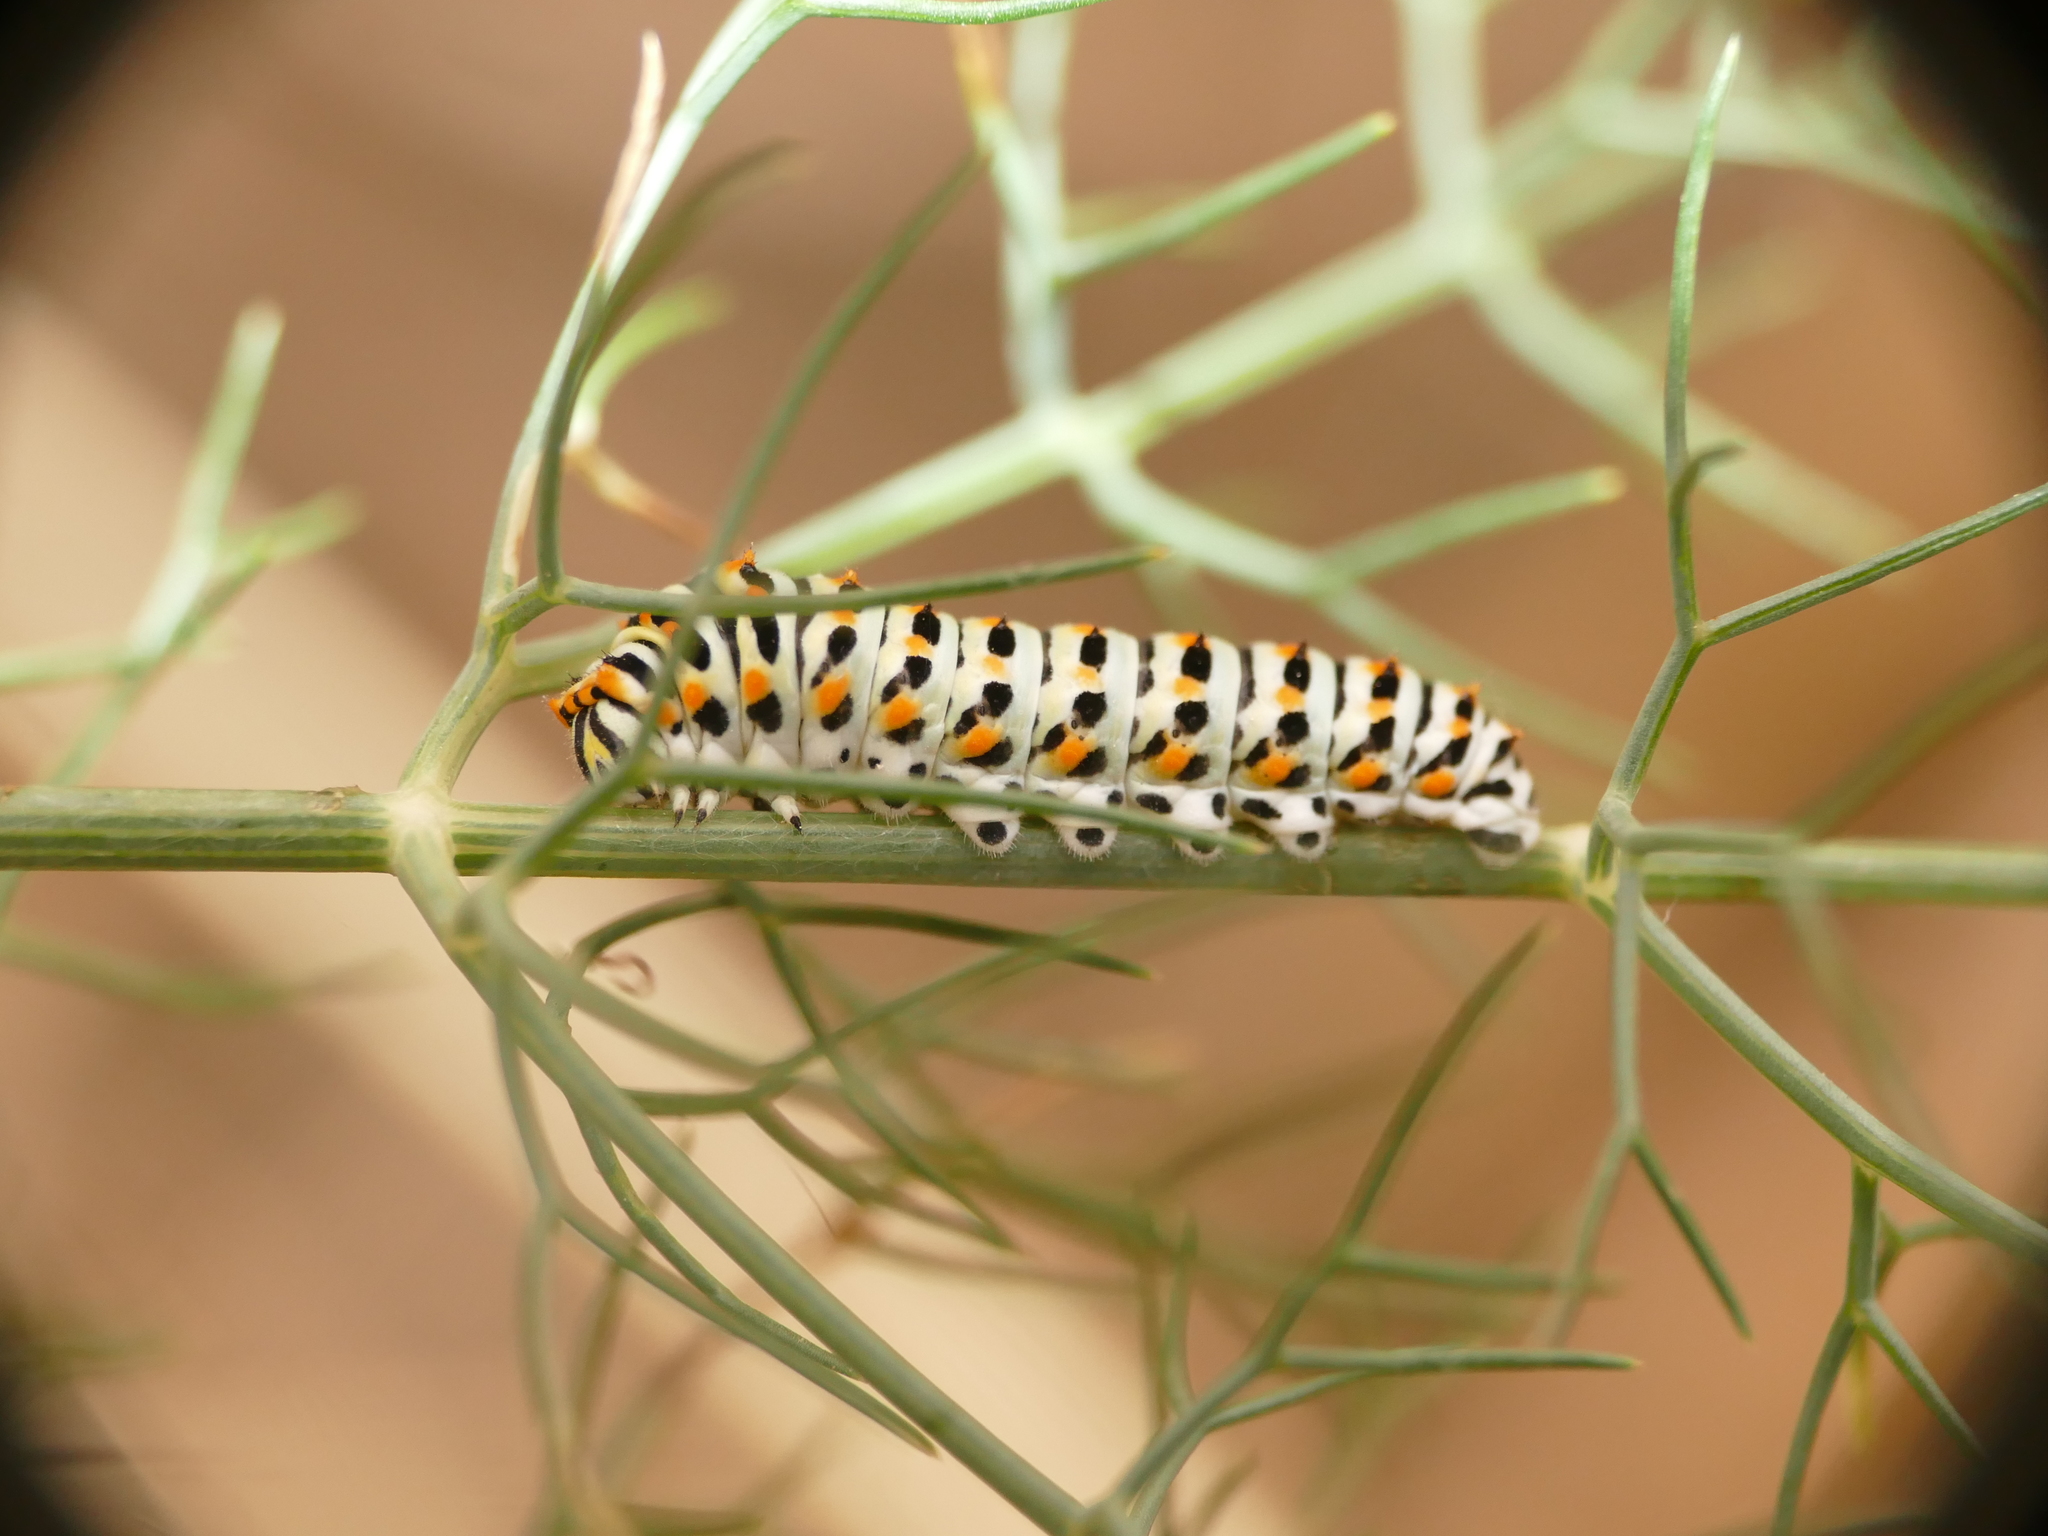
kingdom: Animalia
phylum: Arthropoda
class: Insecta
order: Lepidoptera
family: Papilionidae
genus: Papilio
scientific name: Papilio machaon
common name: Swallowtail
